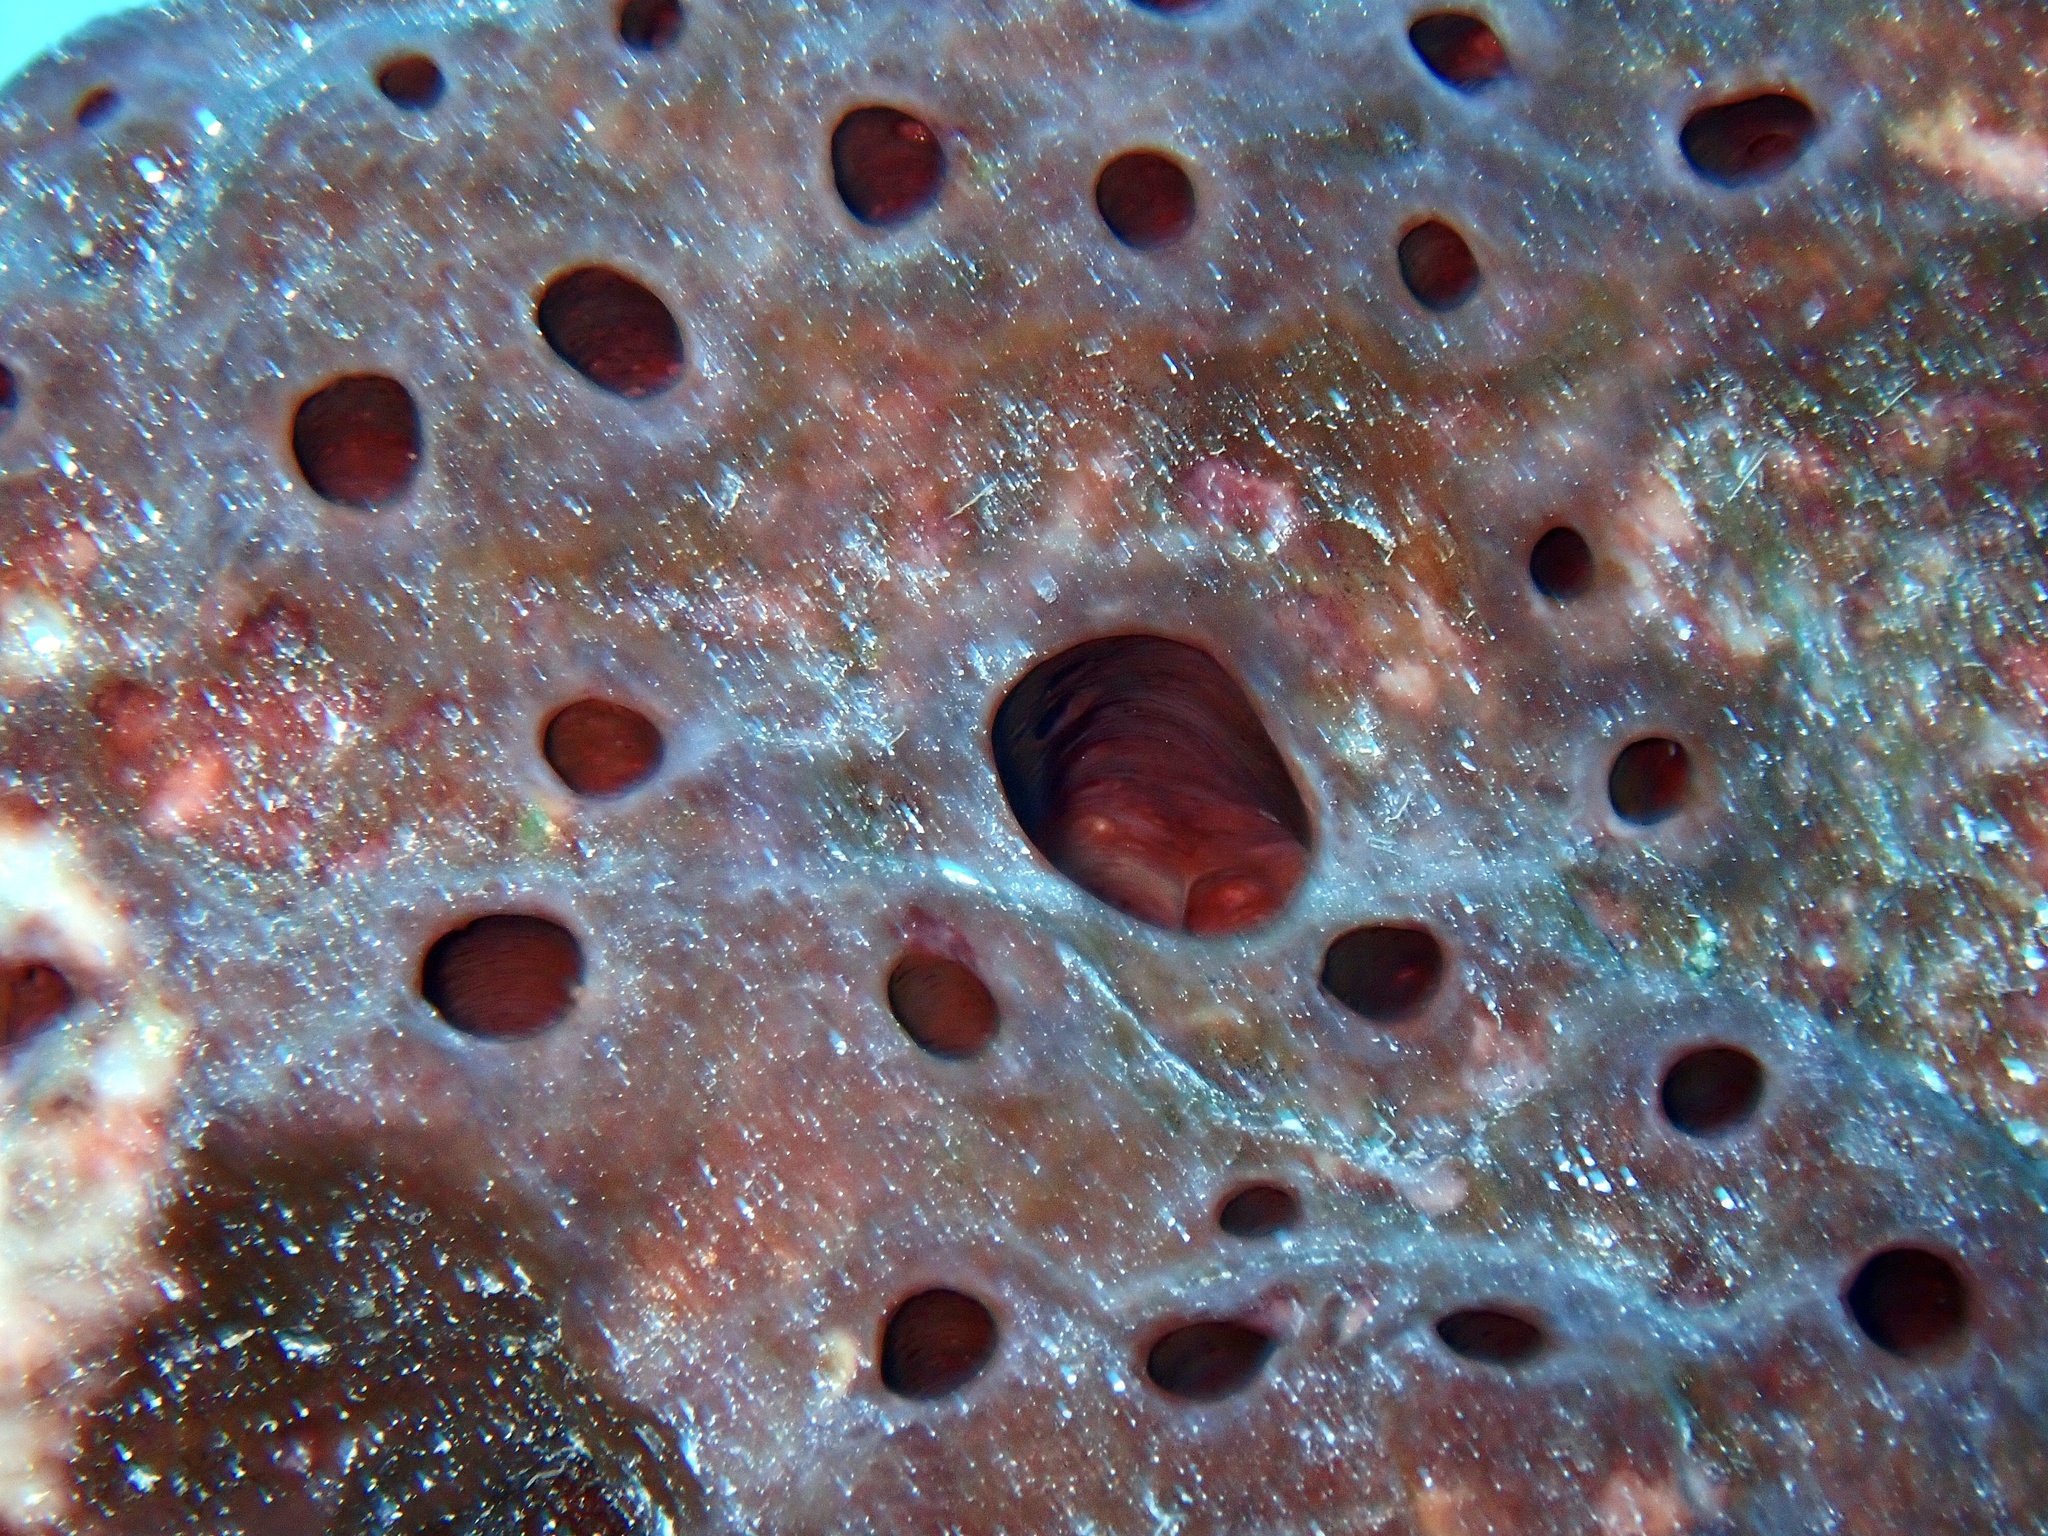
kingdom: Animalia
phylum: Porifera
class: Demospongiae
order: Tetractinellida
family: Theonellidae
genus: Theonella
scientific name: Theonella swinhoei
